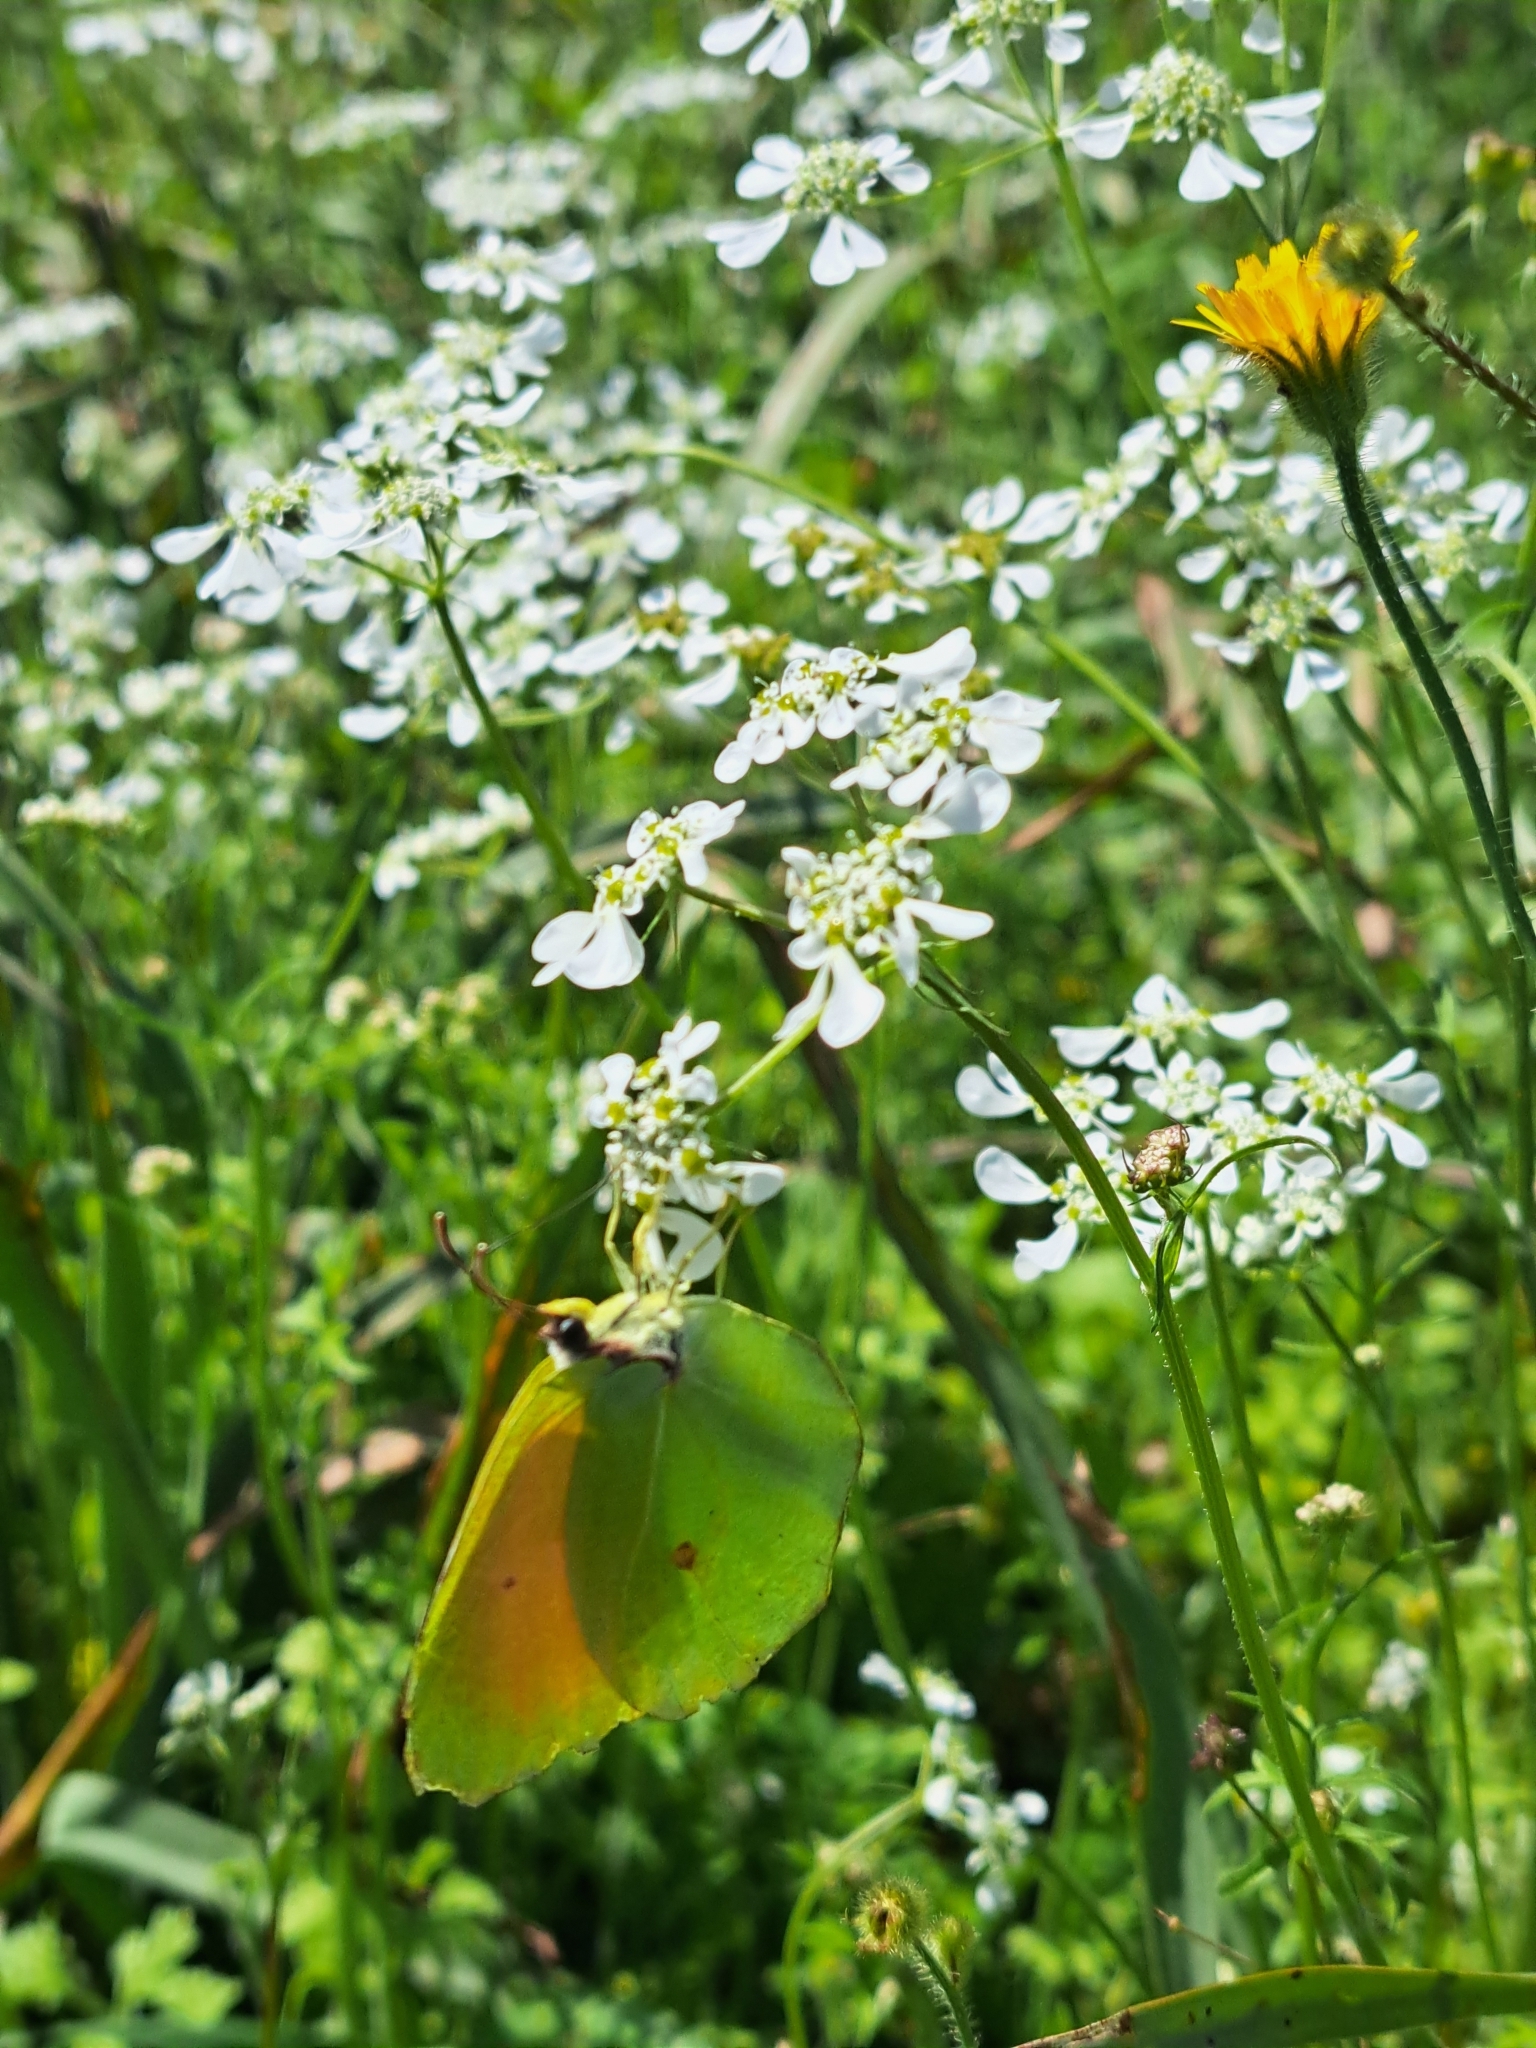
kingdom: Animalia
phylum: Arthropoda
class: Insecta
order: Lepidoptera
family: Pieridae
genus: Gonepteryx
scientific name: Gonepteryx cleopatra
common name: Cleopatra
